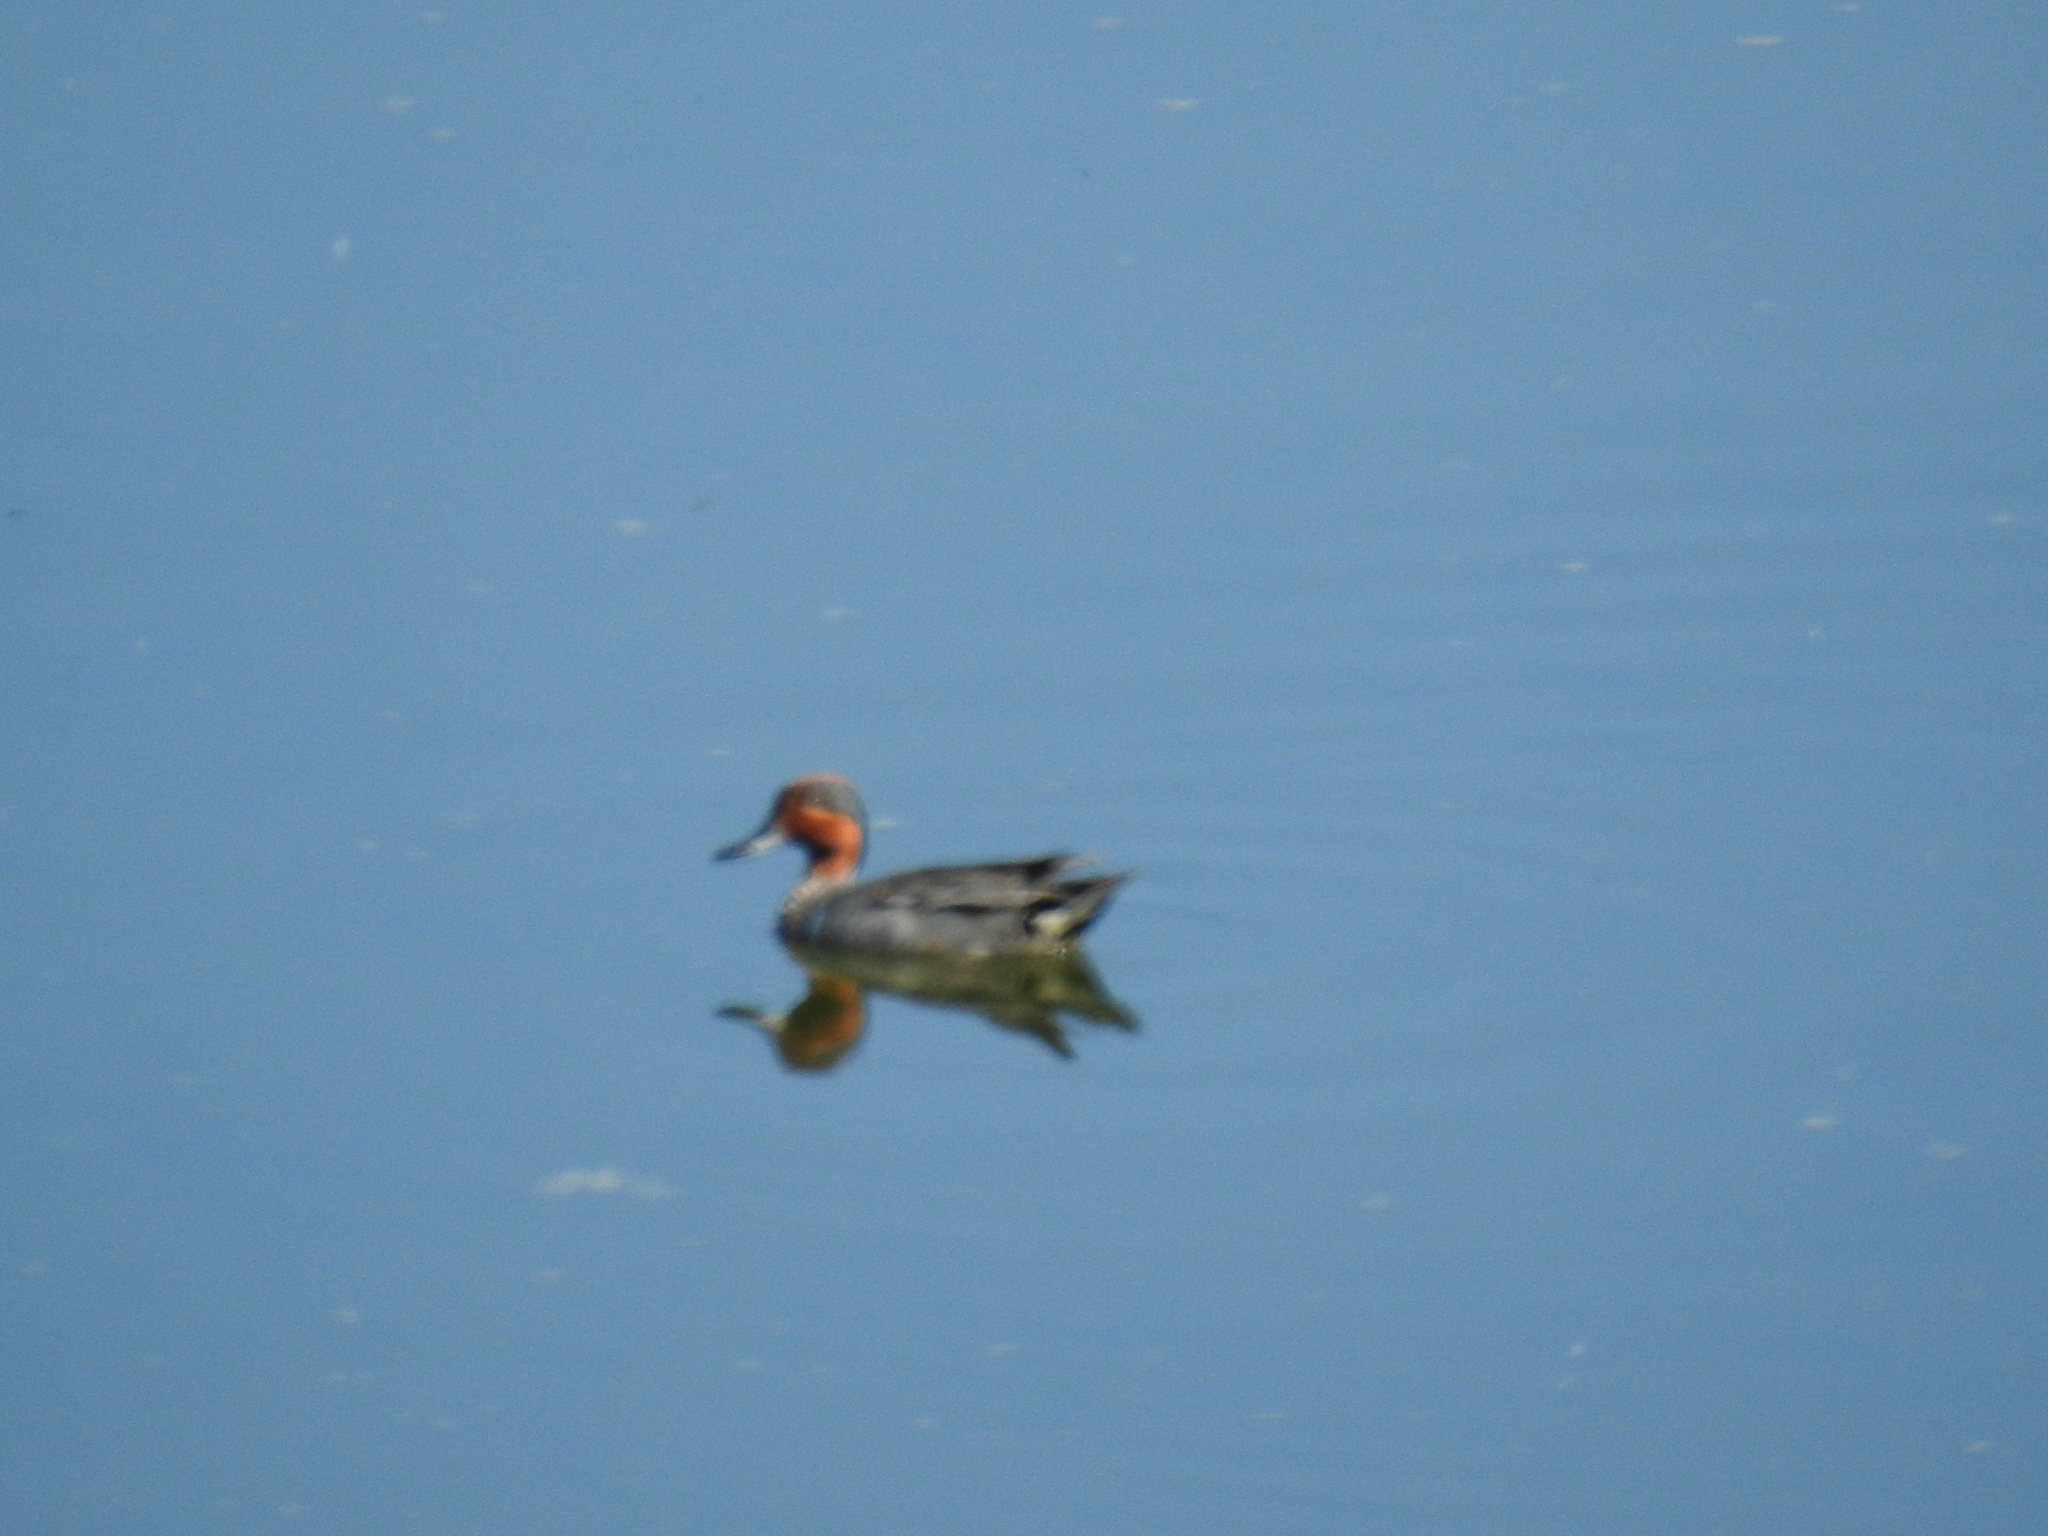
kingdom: Animalia
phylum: Chordata
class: Aves
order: Anseriformes
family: Anatidae
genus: Anas
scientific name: Anas crecca
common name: Eurasian teal
